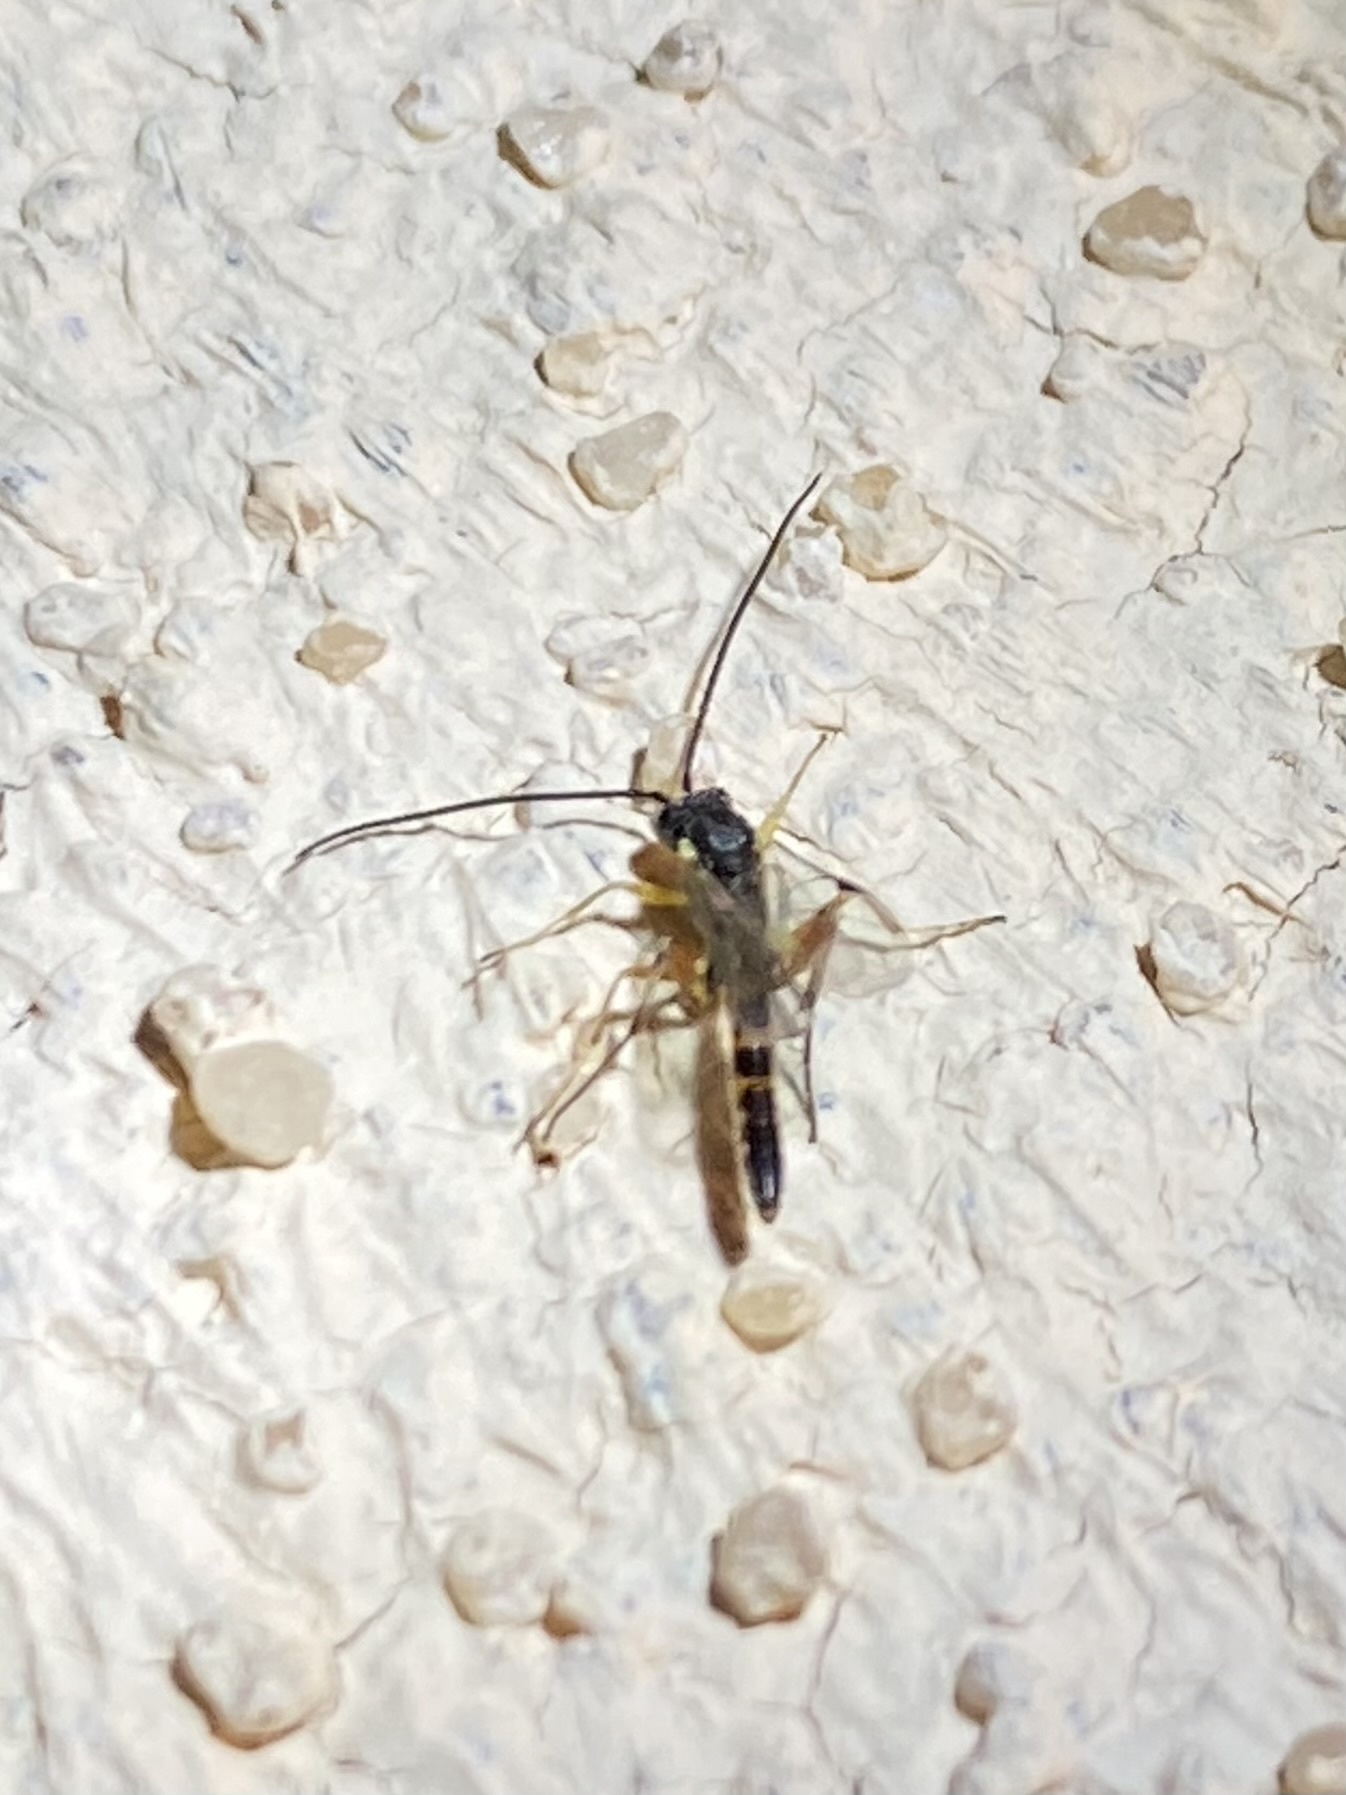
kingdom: Animalia
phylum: Arthropoda
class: Insecta
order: Hymenoptera
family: Ichneumonidae
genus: Campopleginae
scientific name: Campopleginae
